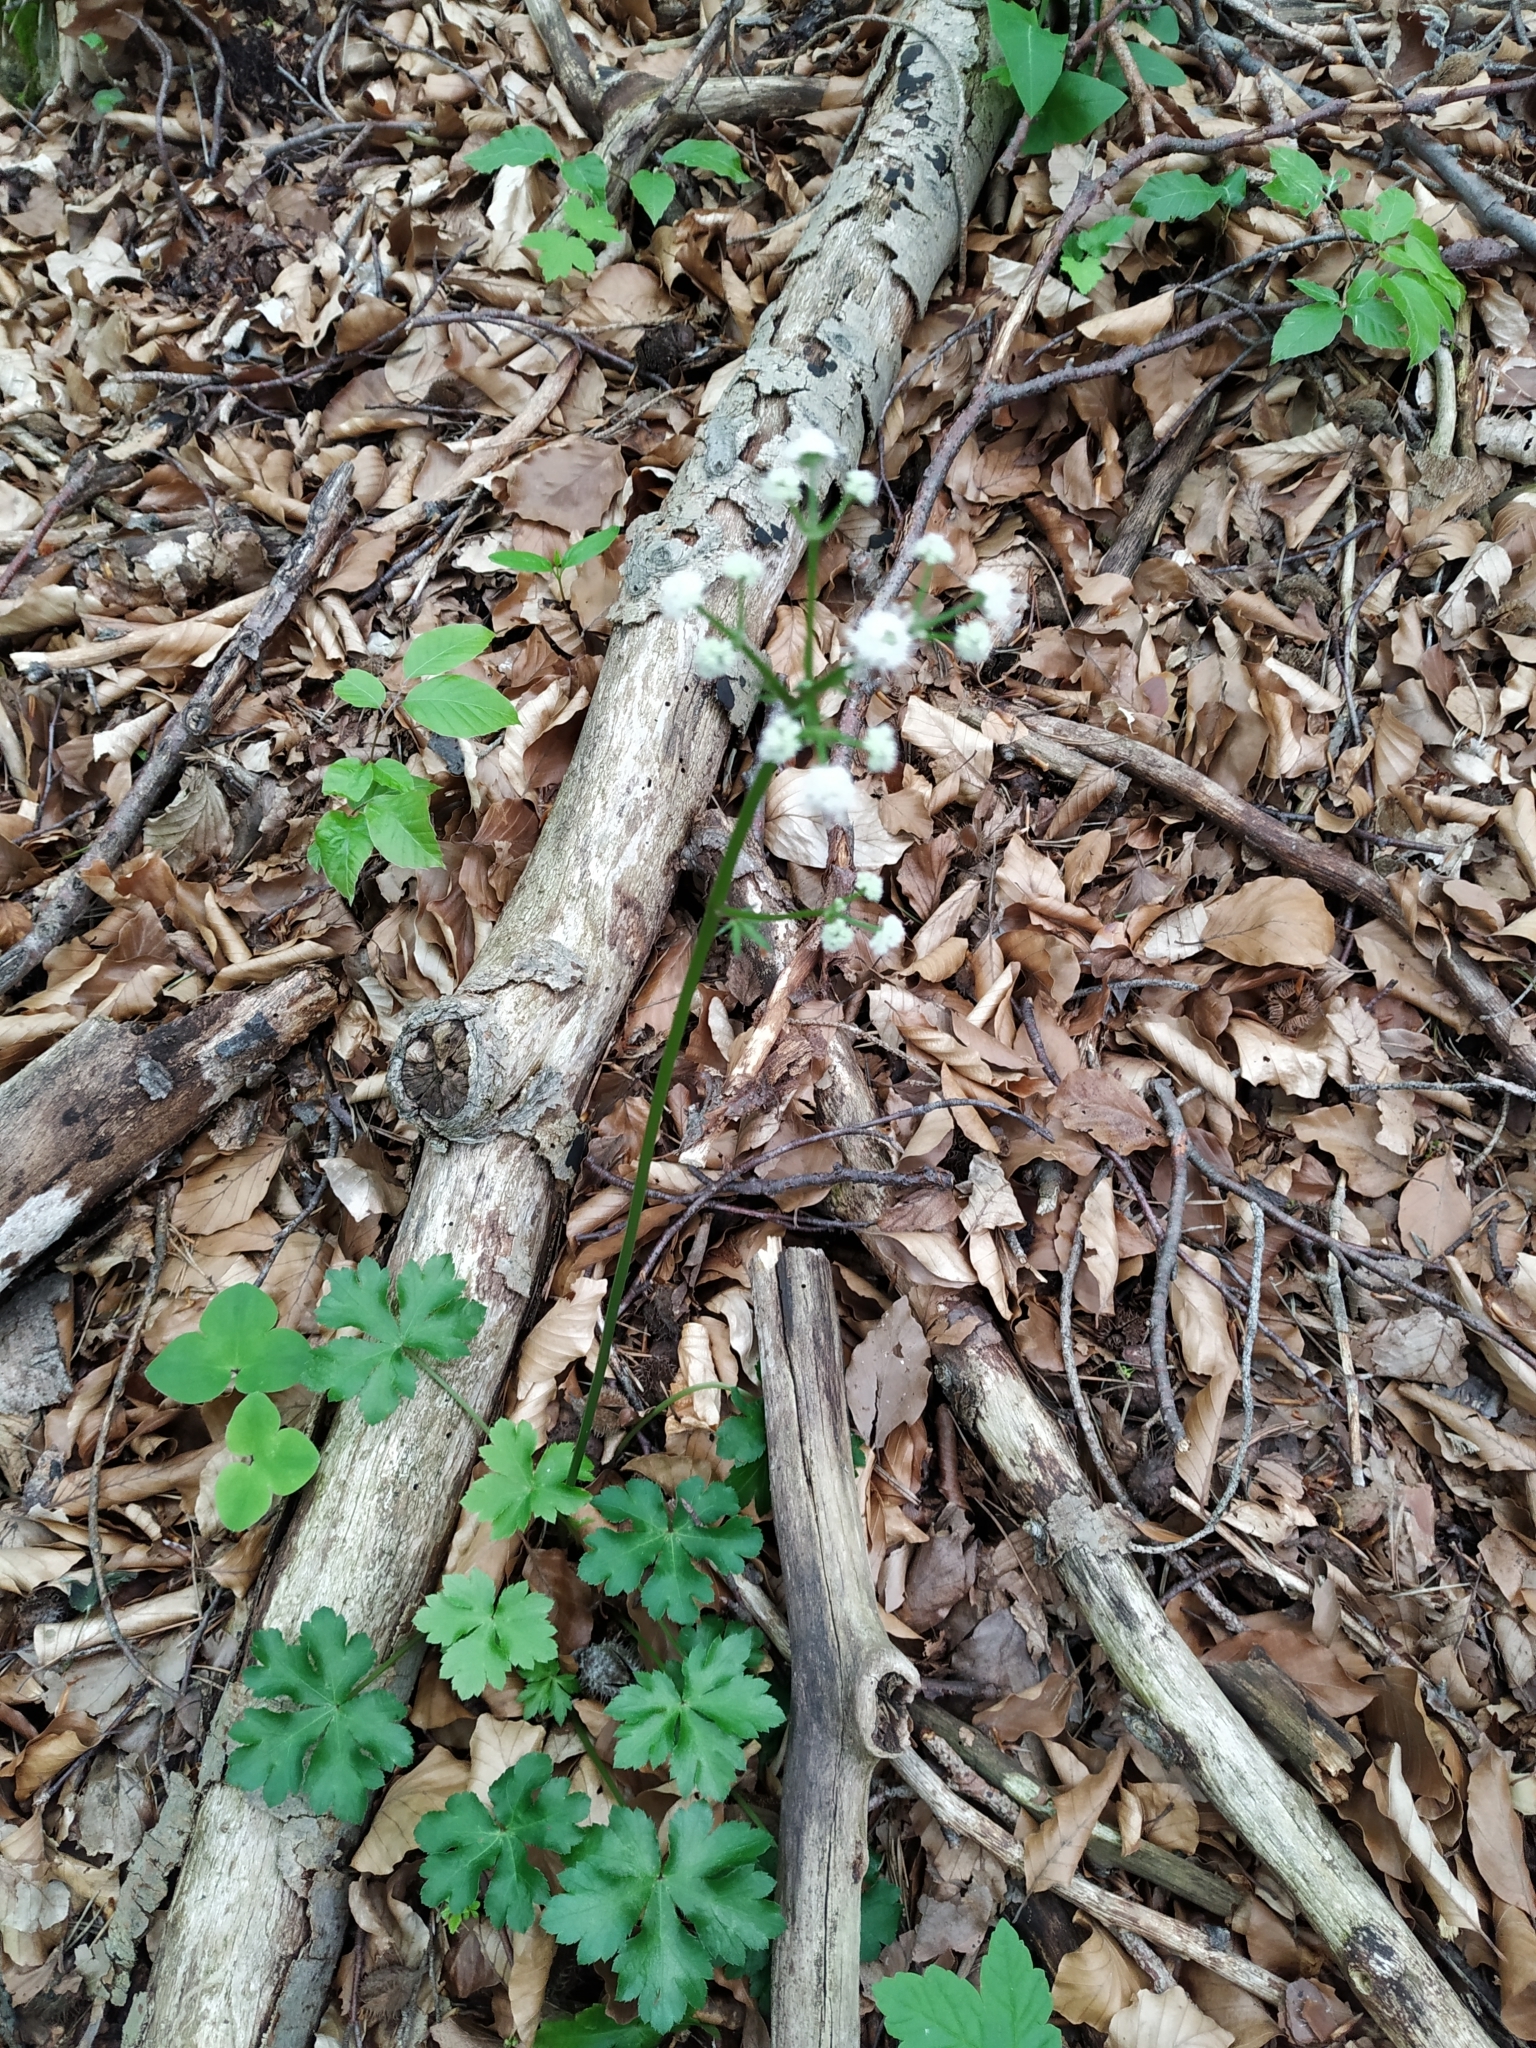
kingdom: Plantae
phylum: Tracheophyta
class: Magnoliopsida
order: Apiales
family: Apiaceae
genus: Sanicula
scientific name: Sanicula europaea
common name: Sanicle
